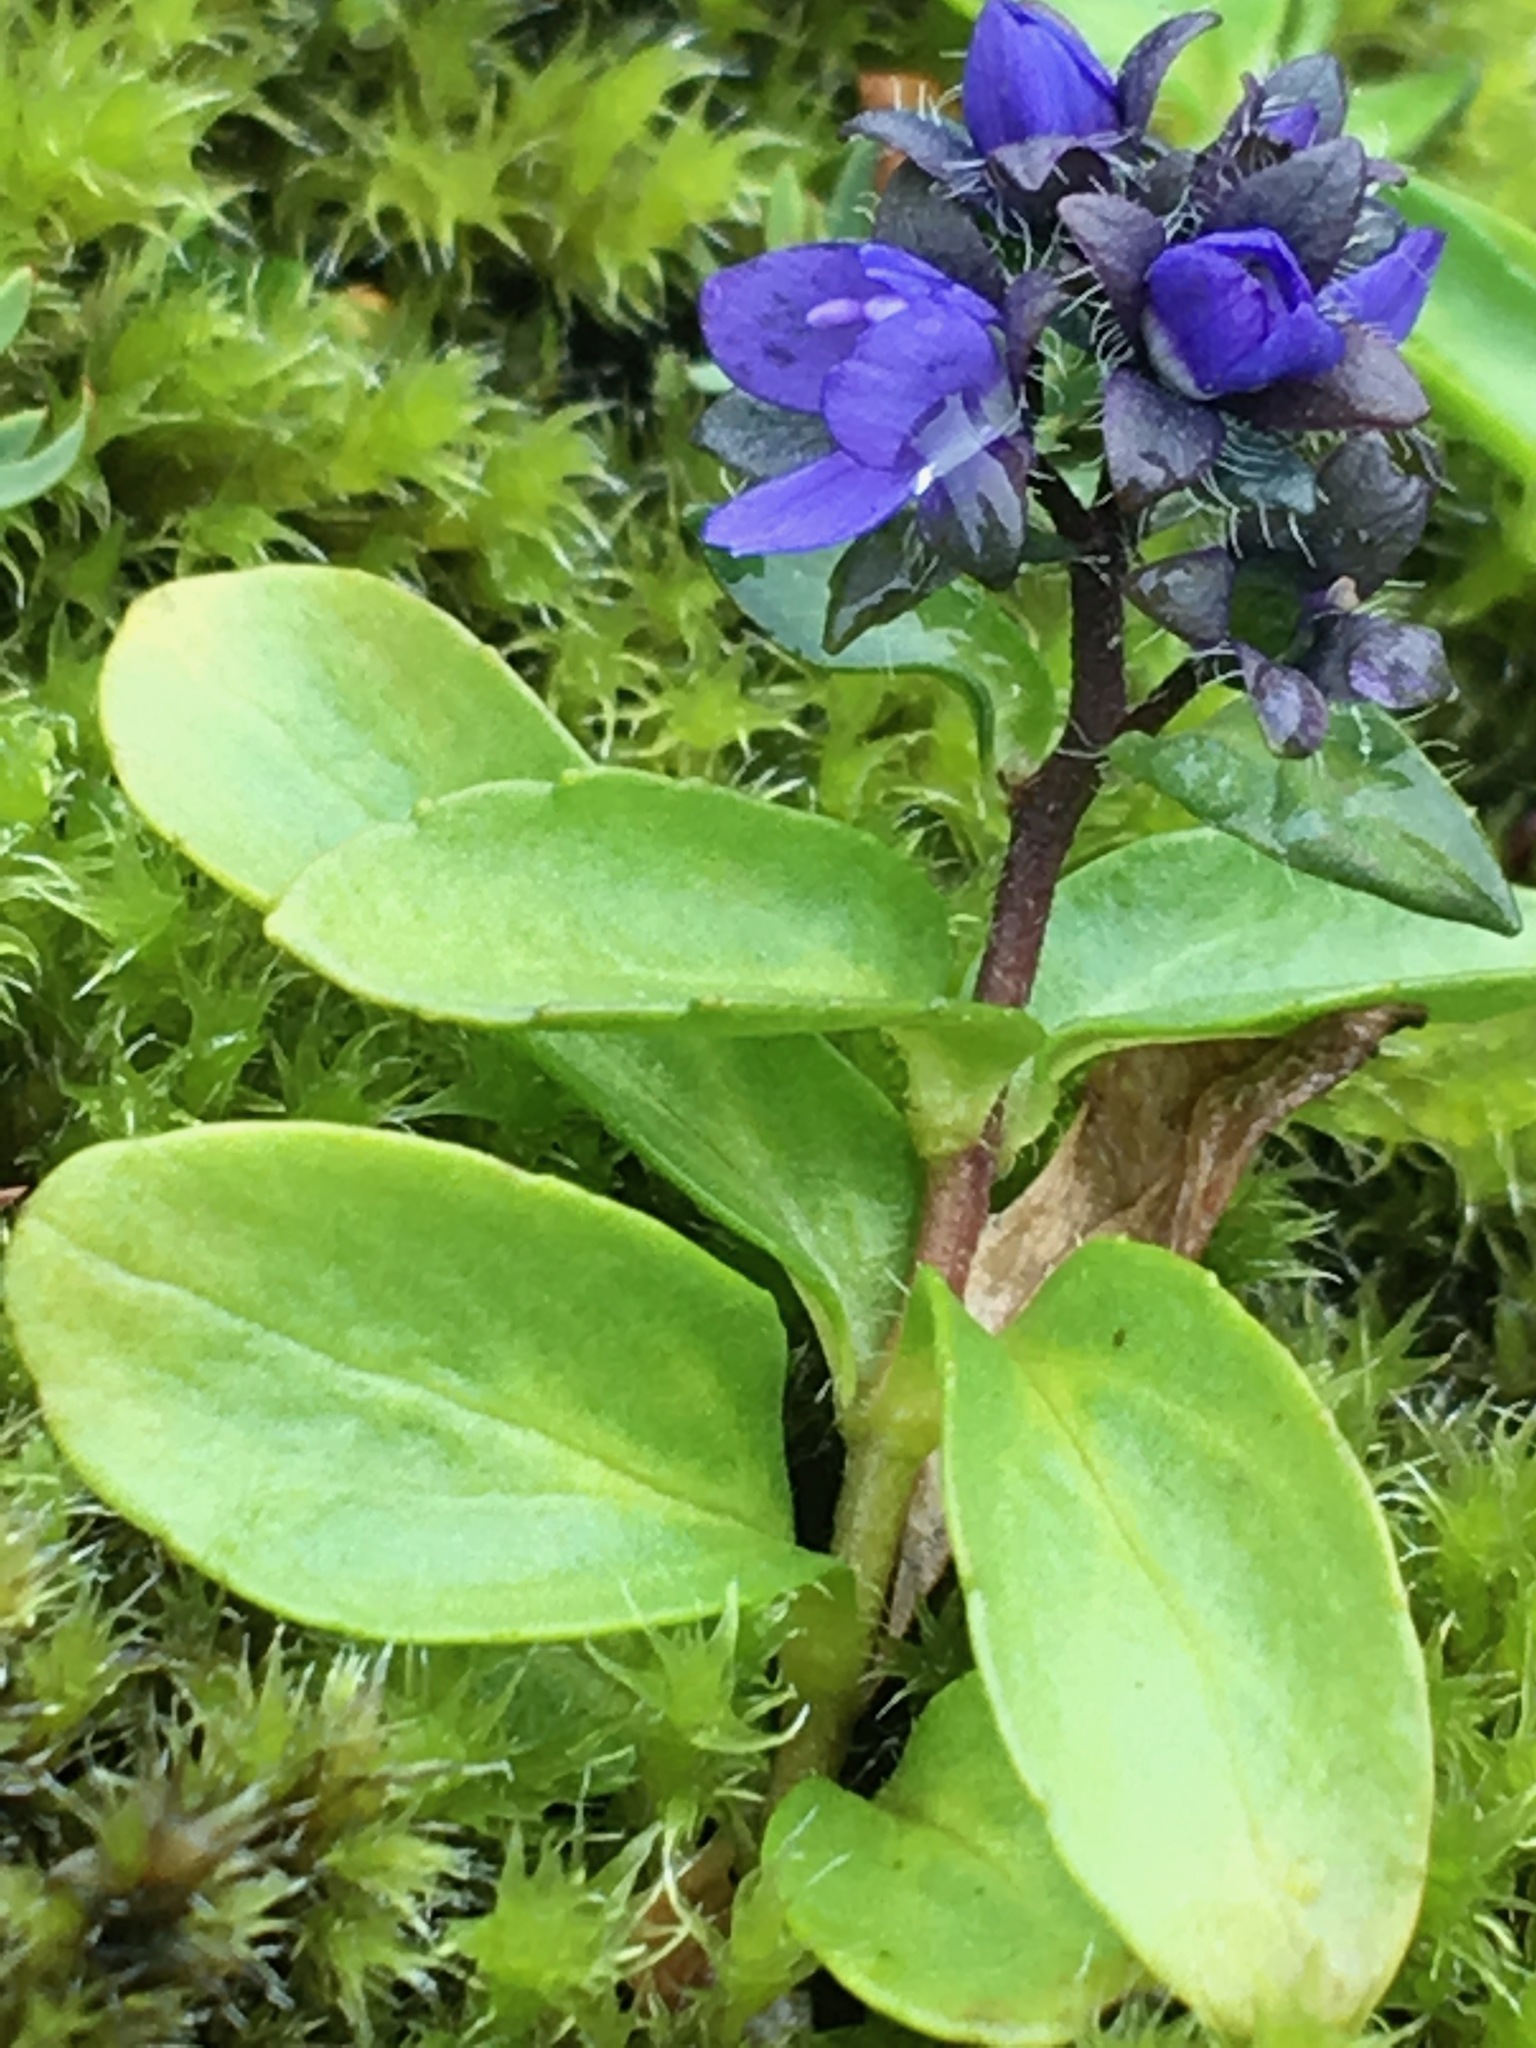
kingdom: Plantae
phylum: Tracheophyta
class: Magnoliopsida
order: Lamiales
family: Plantaginaceae
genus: Veronica
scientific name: Veronica alpina
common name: Alpine speedwell
